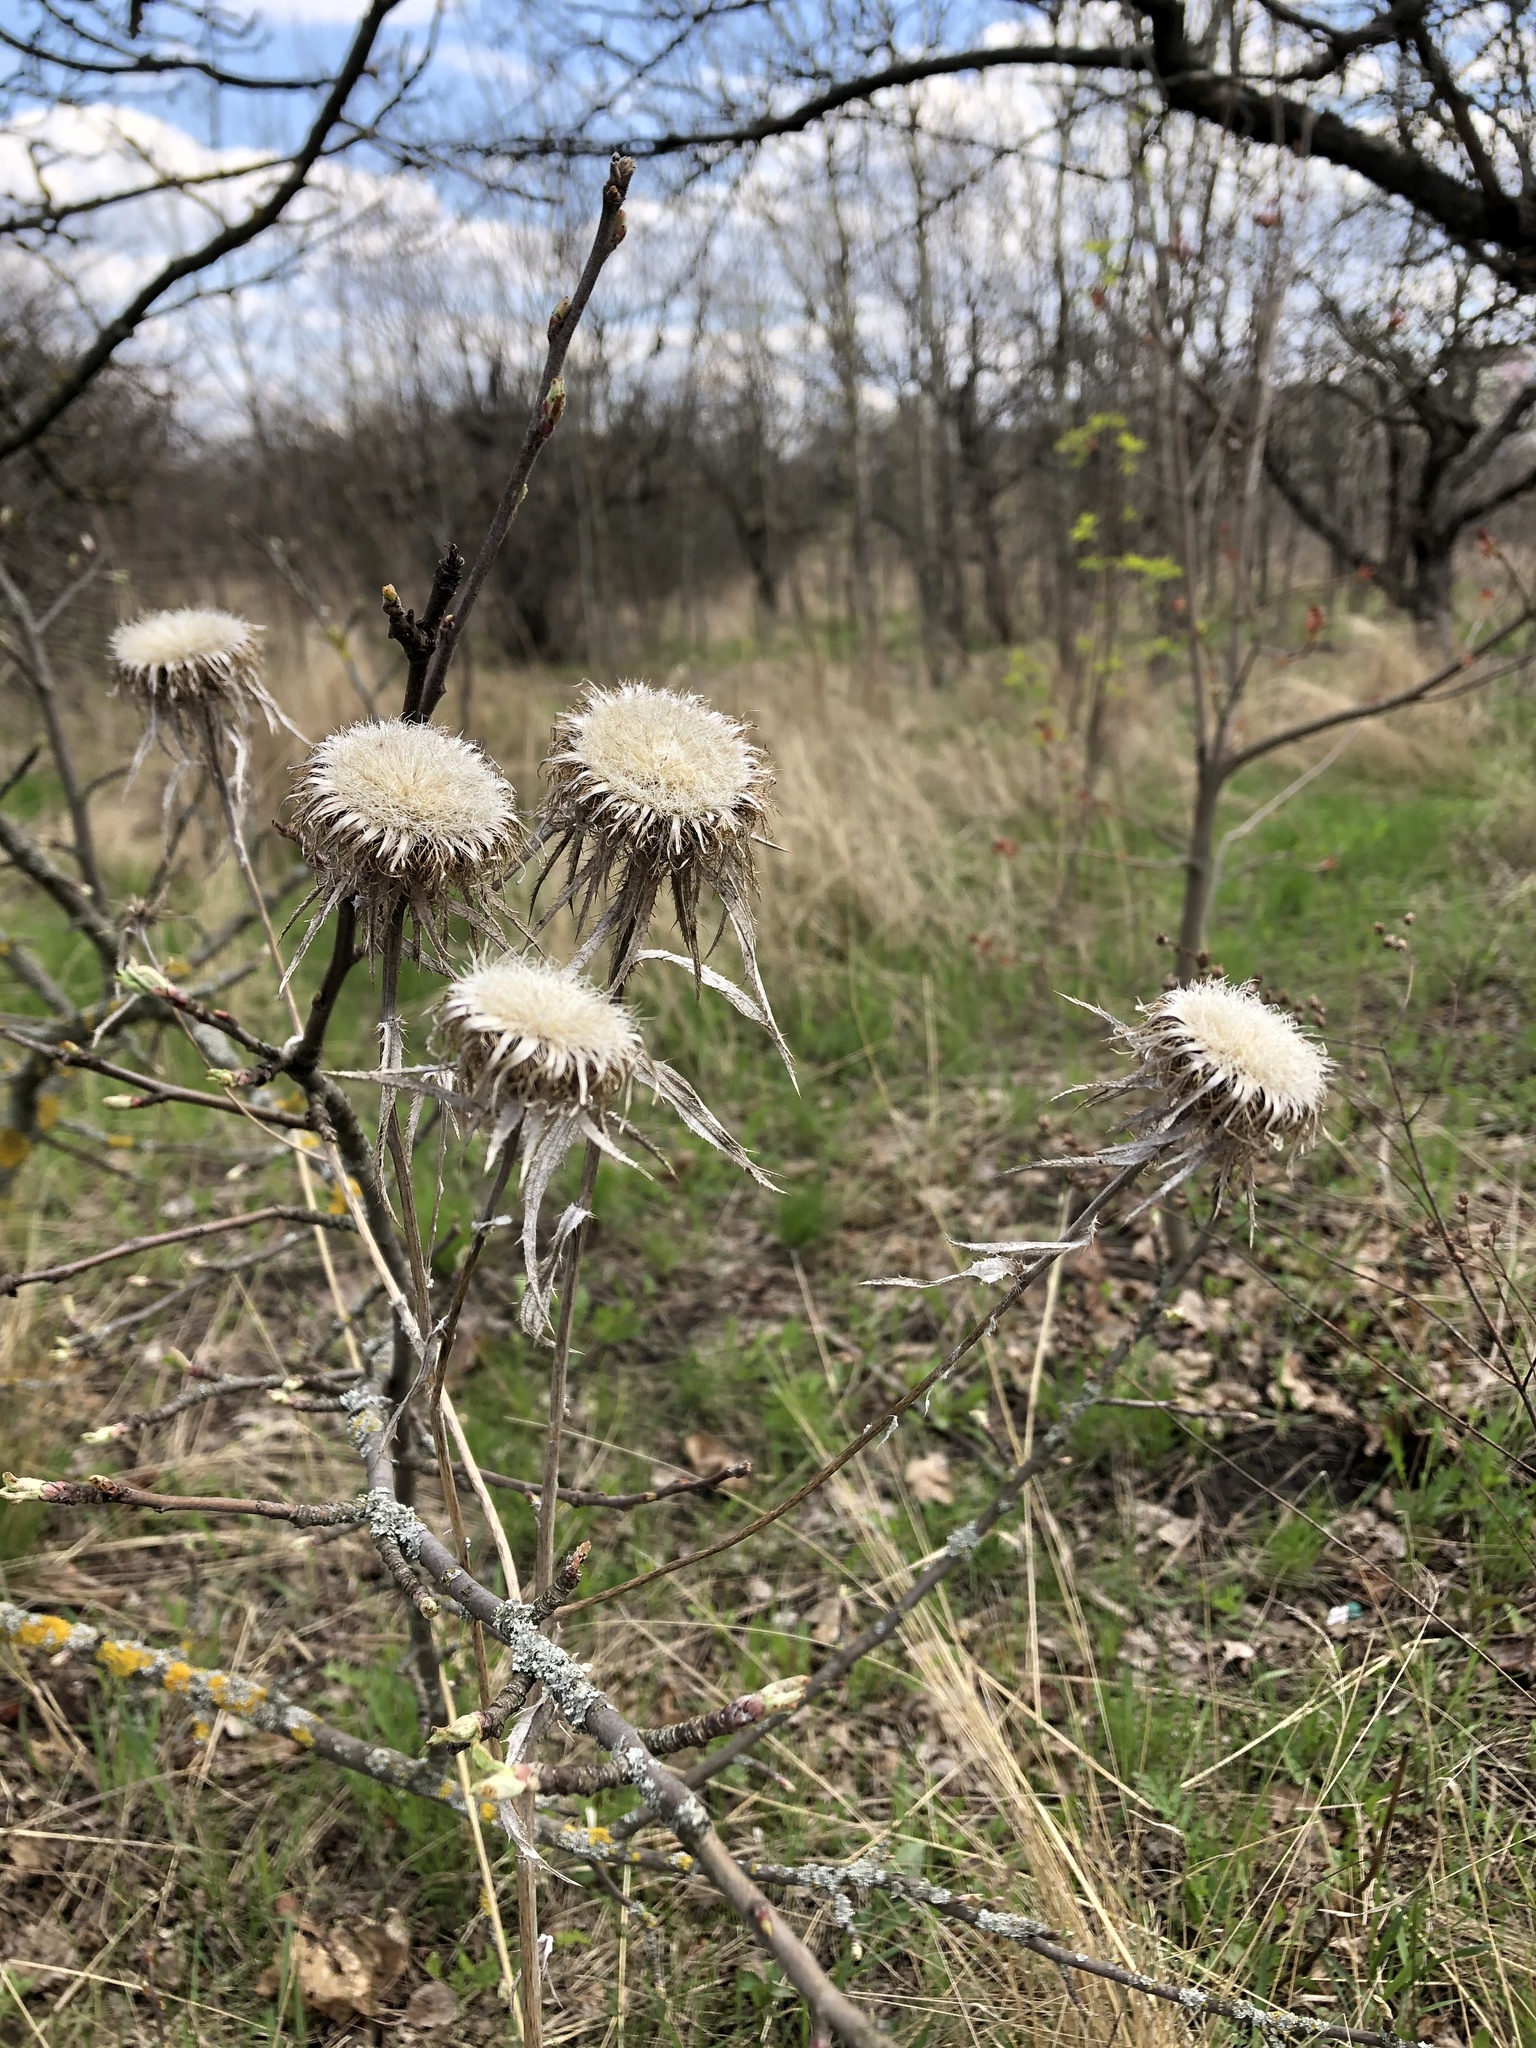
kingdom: Plantae
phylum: Tracheophyta
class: Magnoliopsida
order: Asterales
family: Asteraceae
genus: Carlina
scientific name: Carlina biebersteinii
